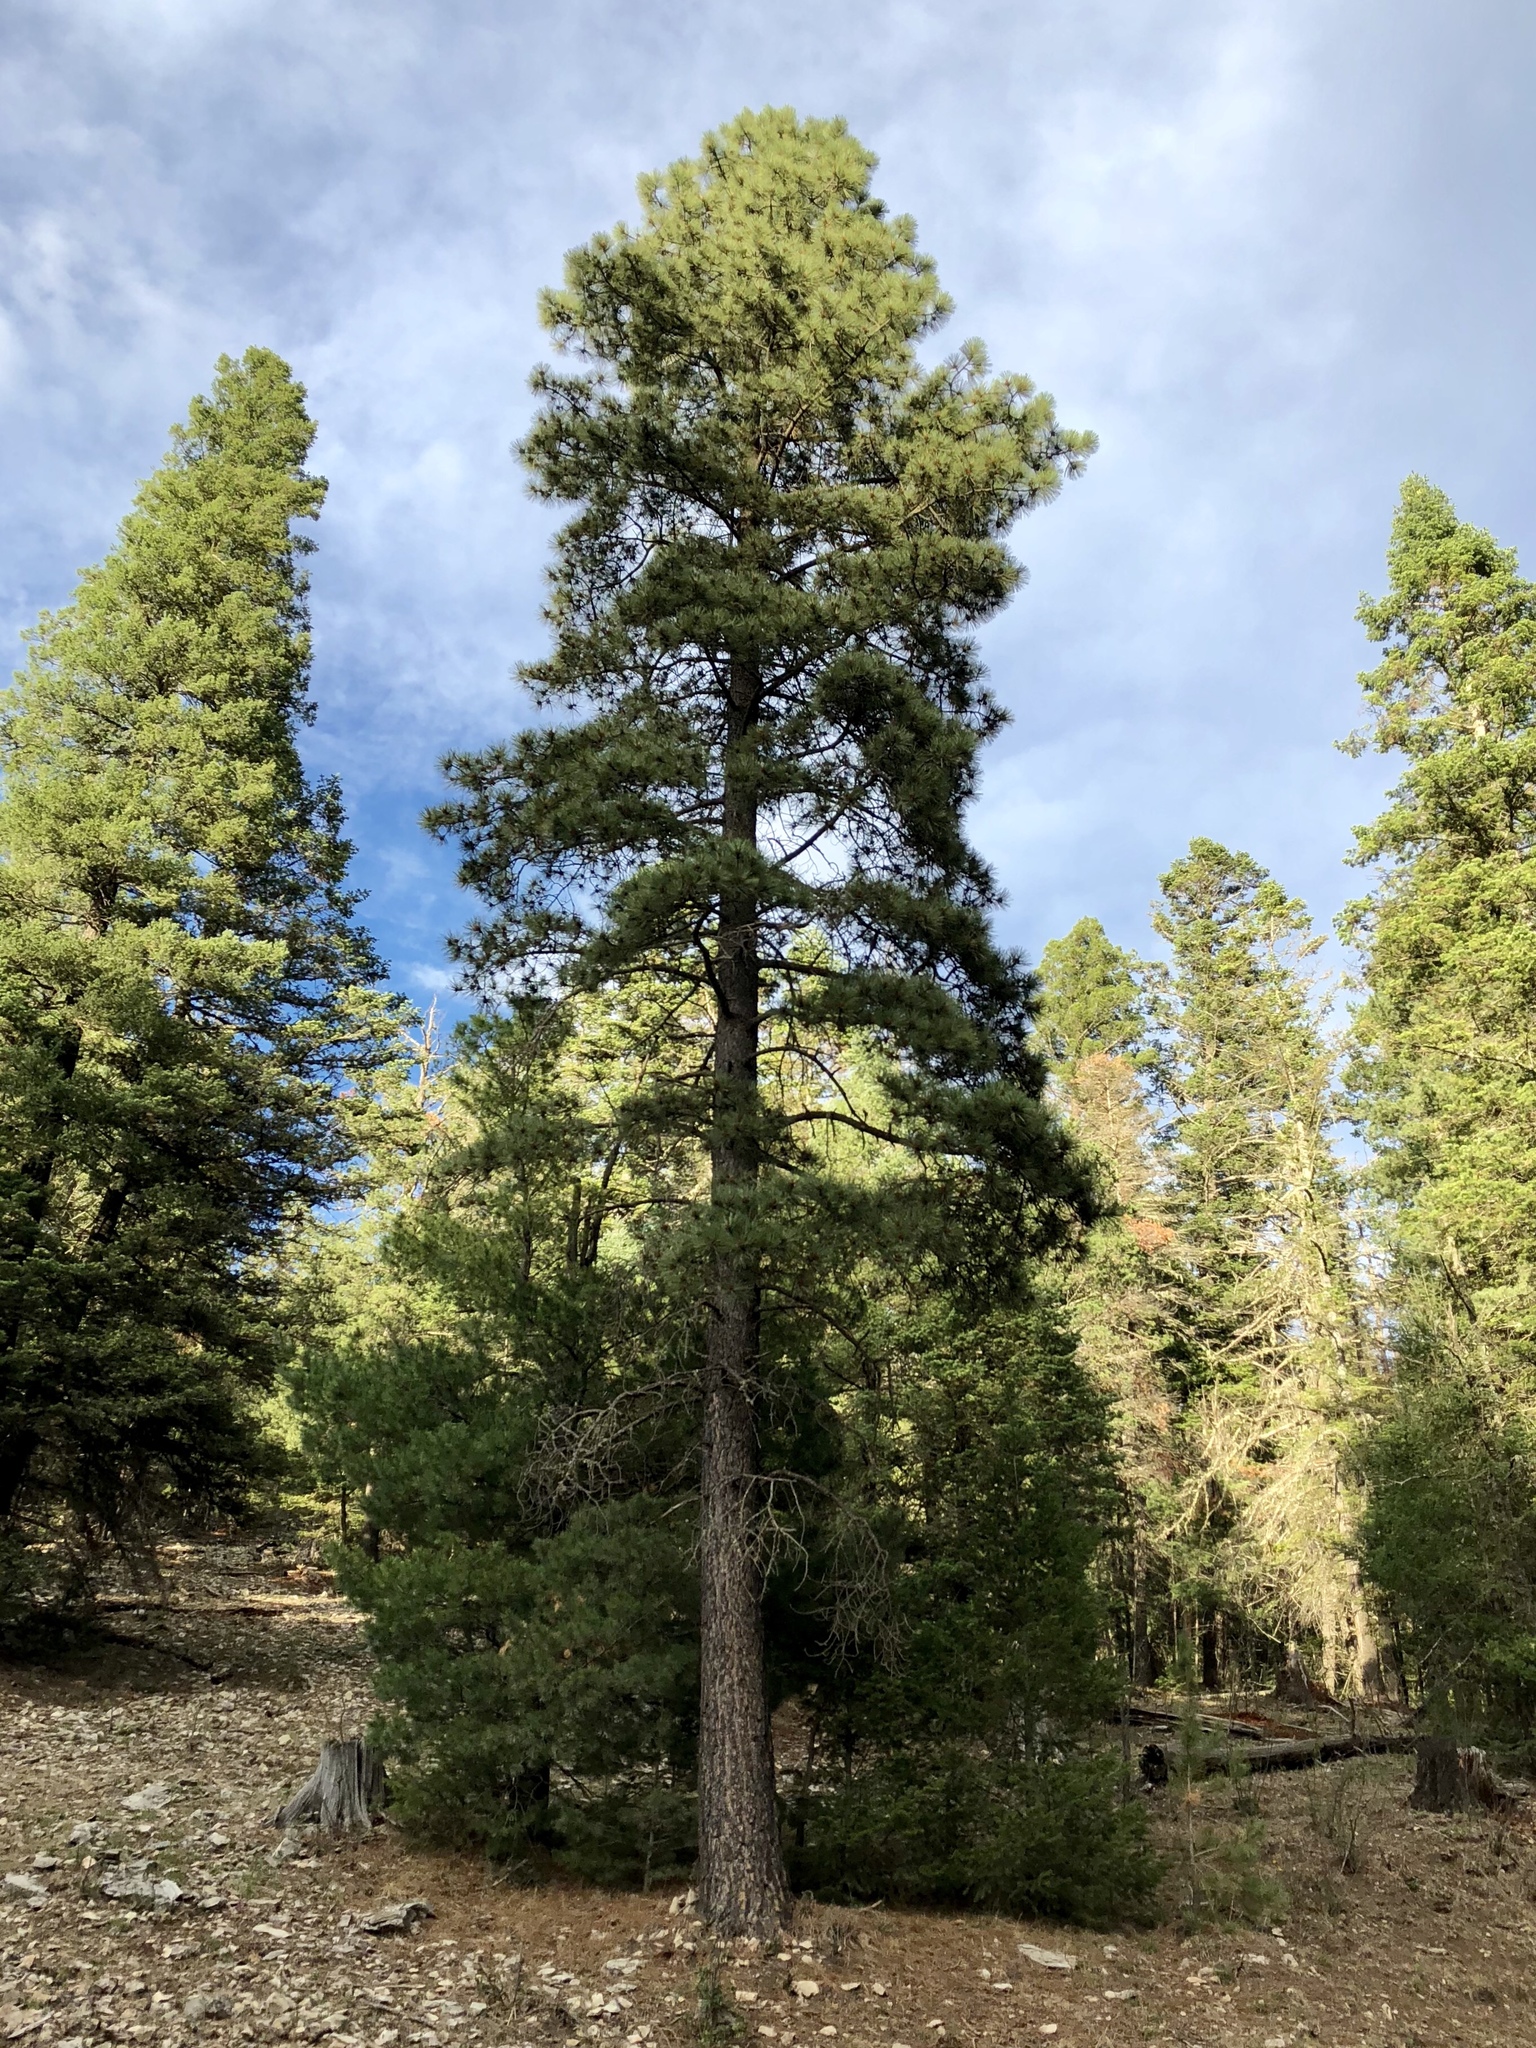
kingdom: Plantae
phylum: Tracheophyta
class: Pinopsida
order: Pinales
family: Pinaceae
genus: Pinus
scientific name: Pinus ponderosa
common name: Western yellow-pine
